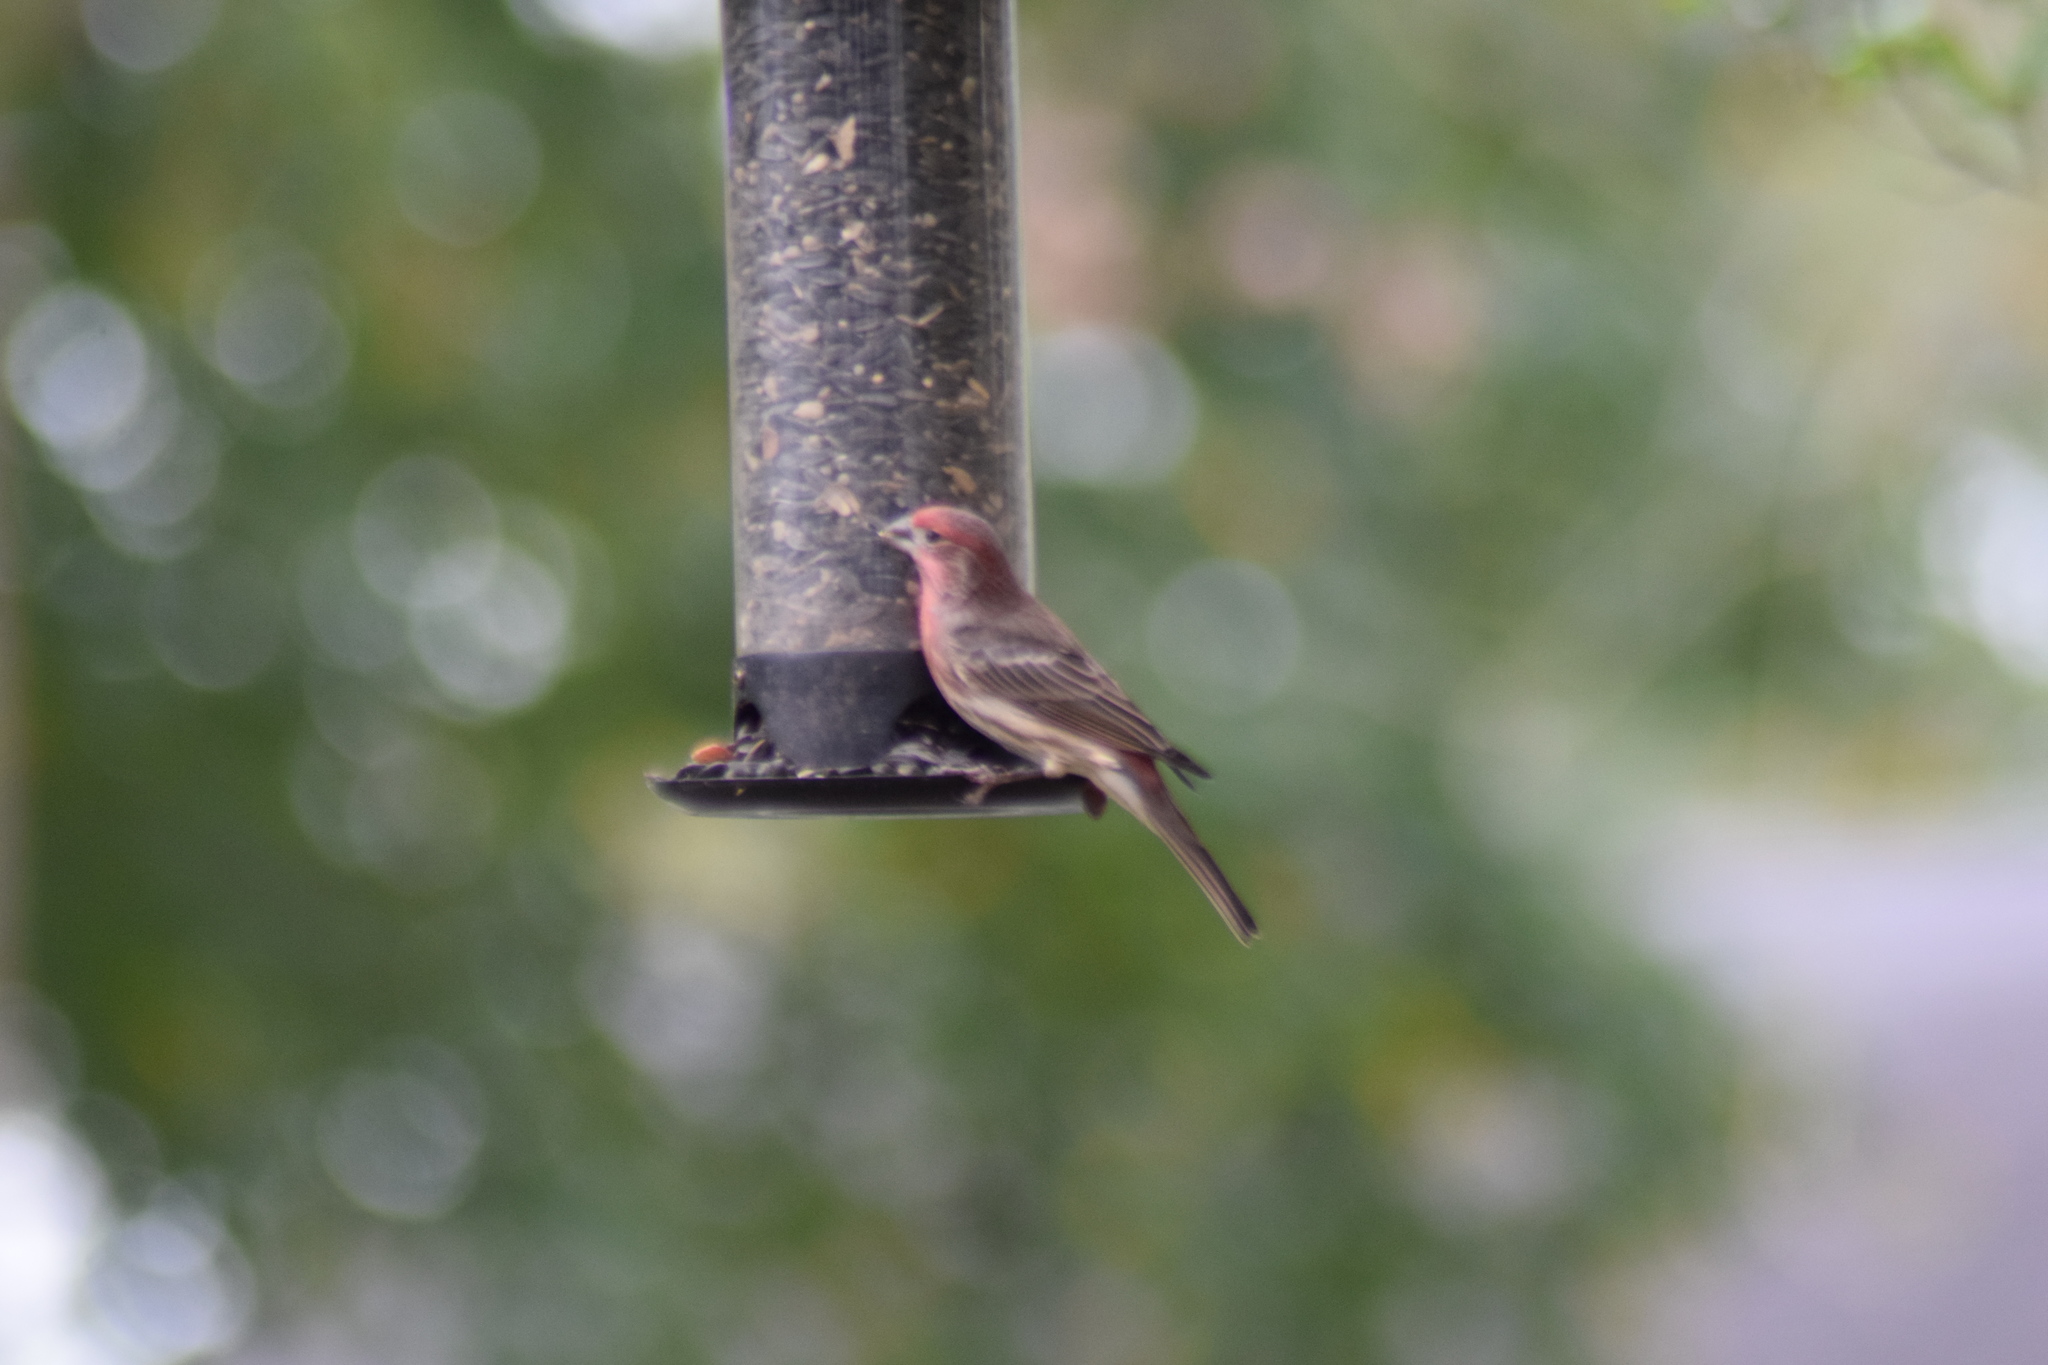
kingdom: Animalia
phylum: Chordata
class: Aves
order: Passeriformes
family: Fringillidae
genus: Haemorhous
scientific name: Haemorhous mexicanus
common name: House finch
